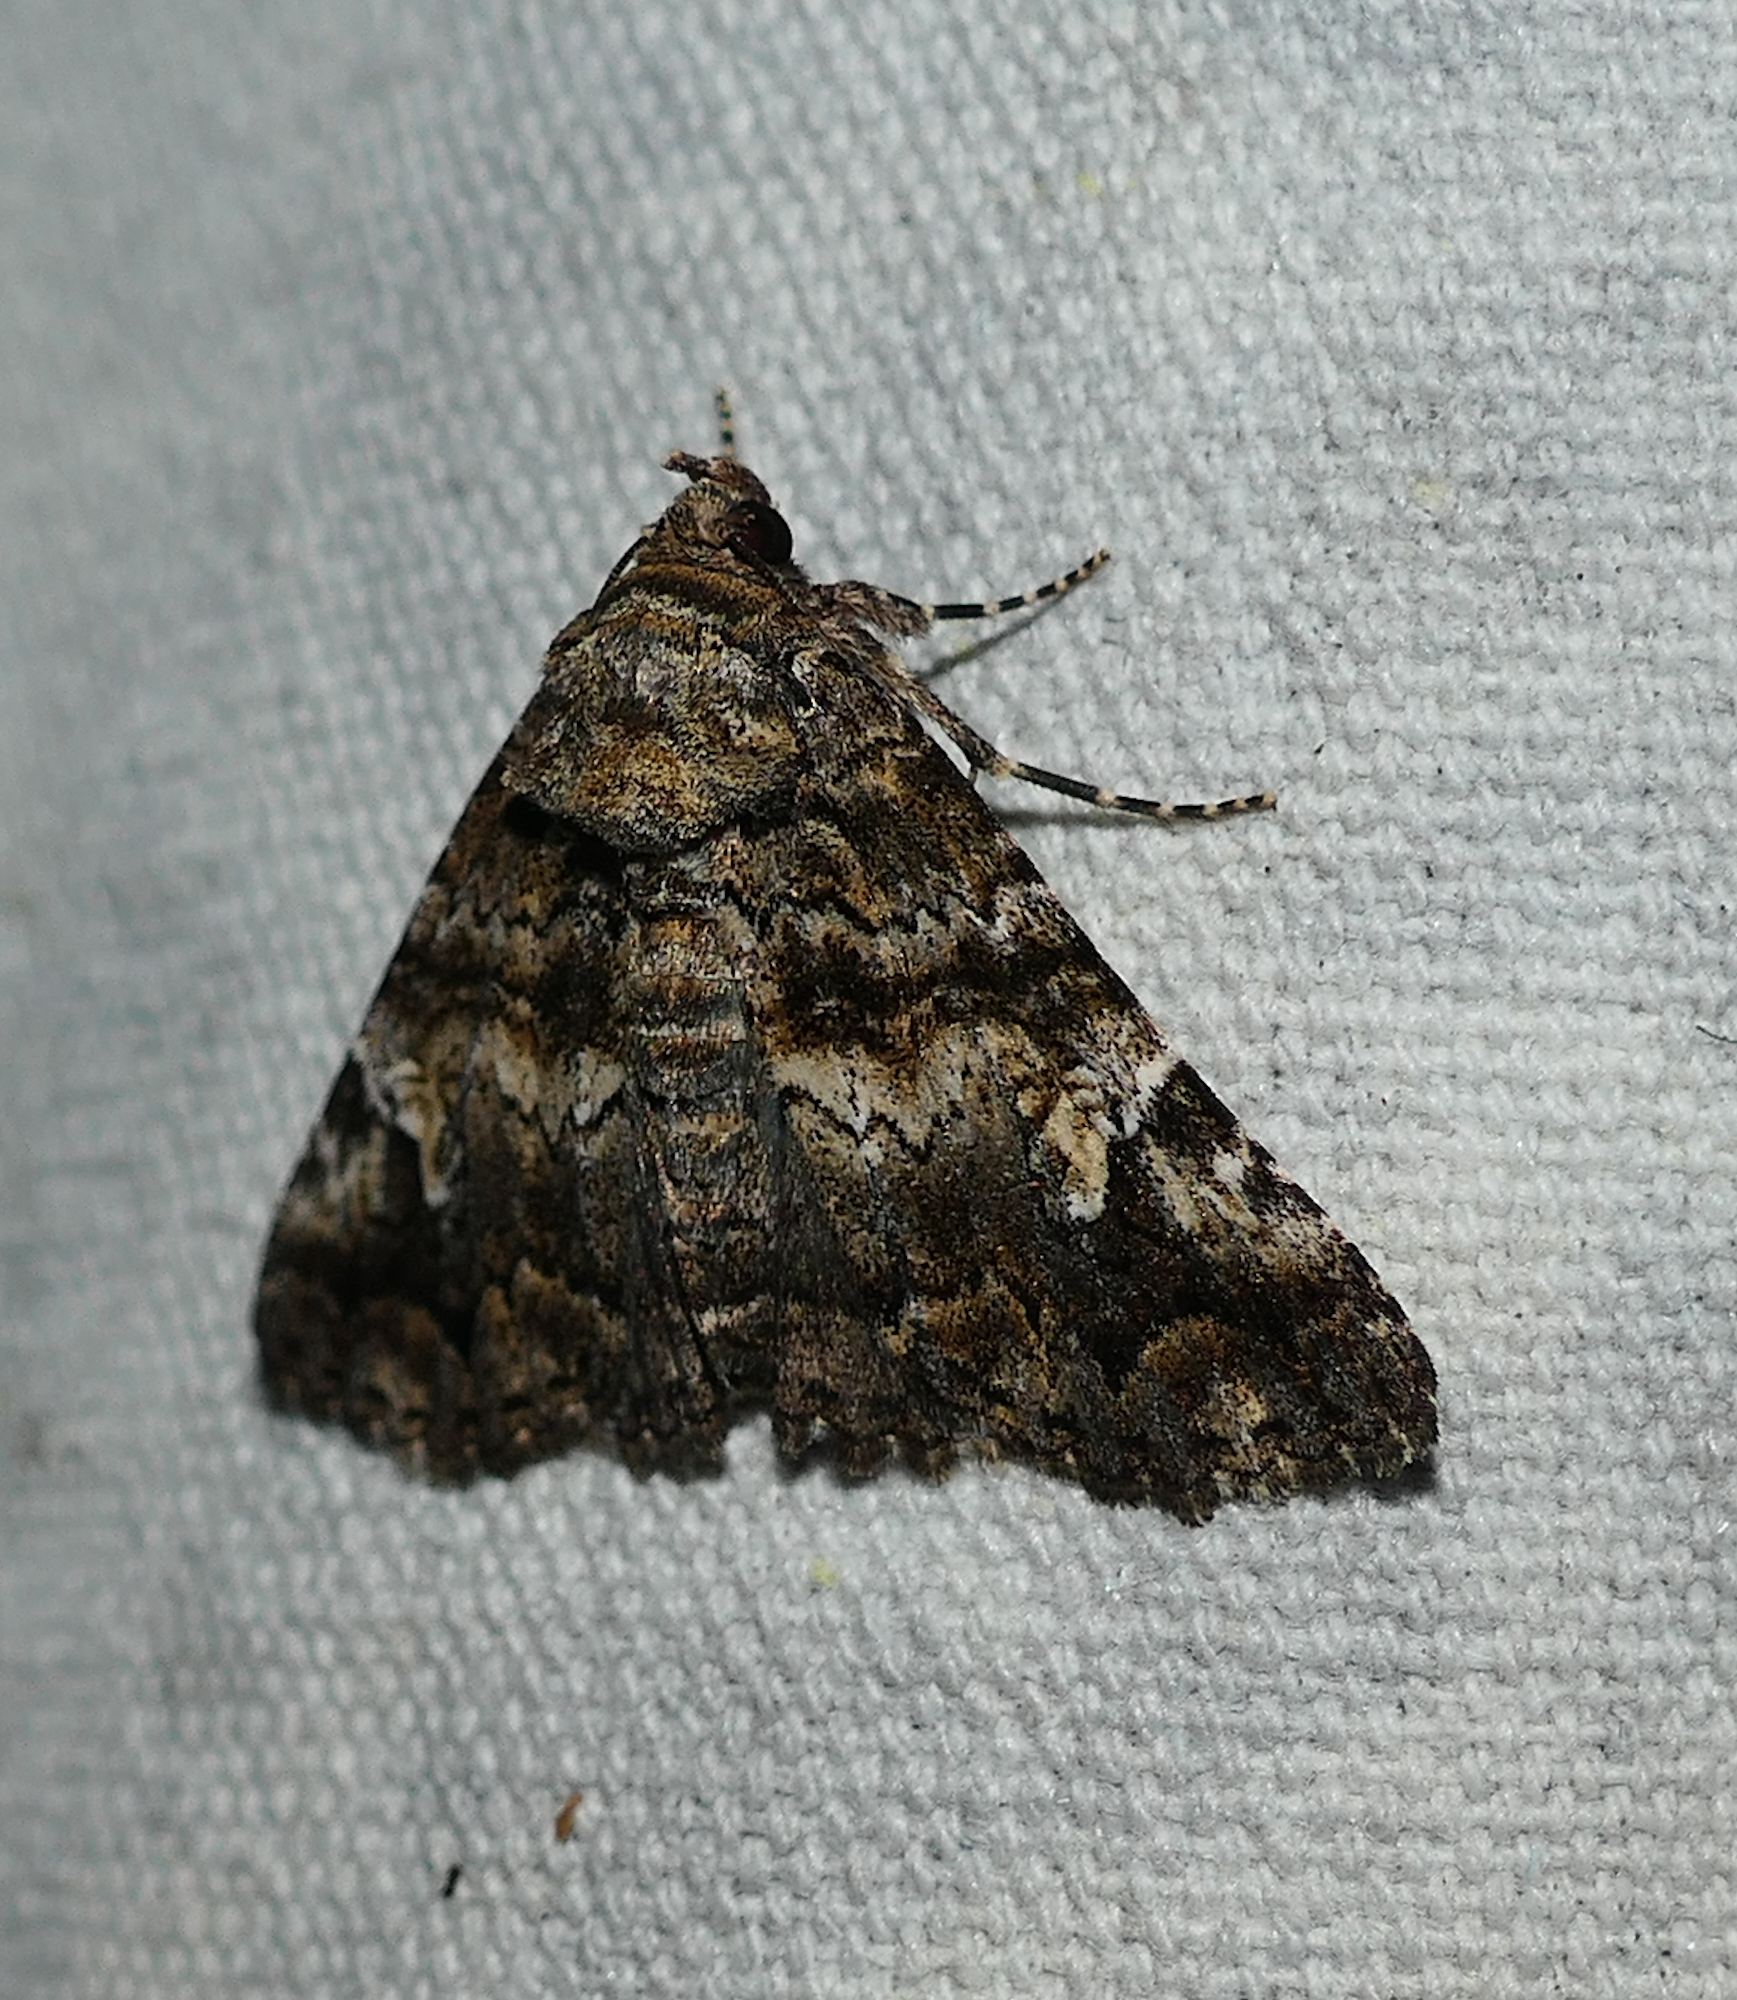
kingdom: Animalia
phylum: Arthropoda
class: Insecta
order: Lepidoptera
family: Erebidae
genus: Metria
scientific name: Metria amella
